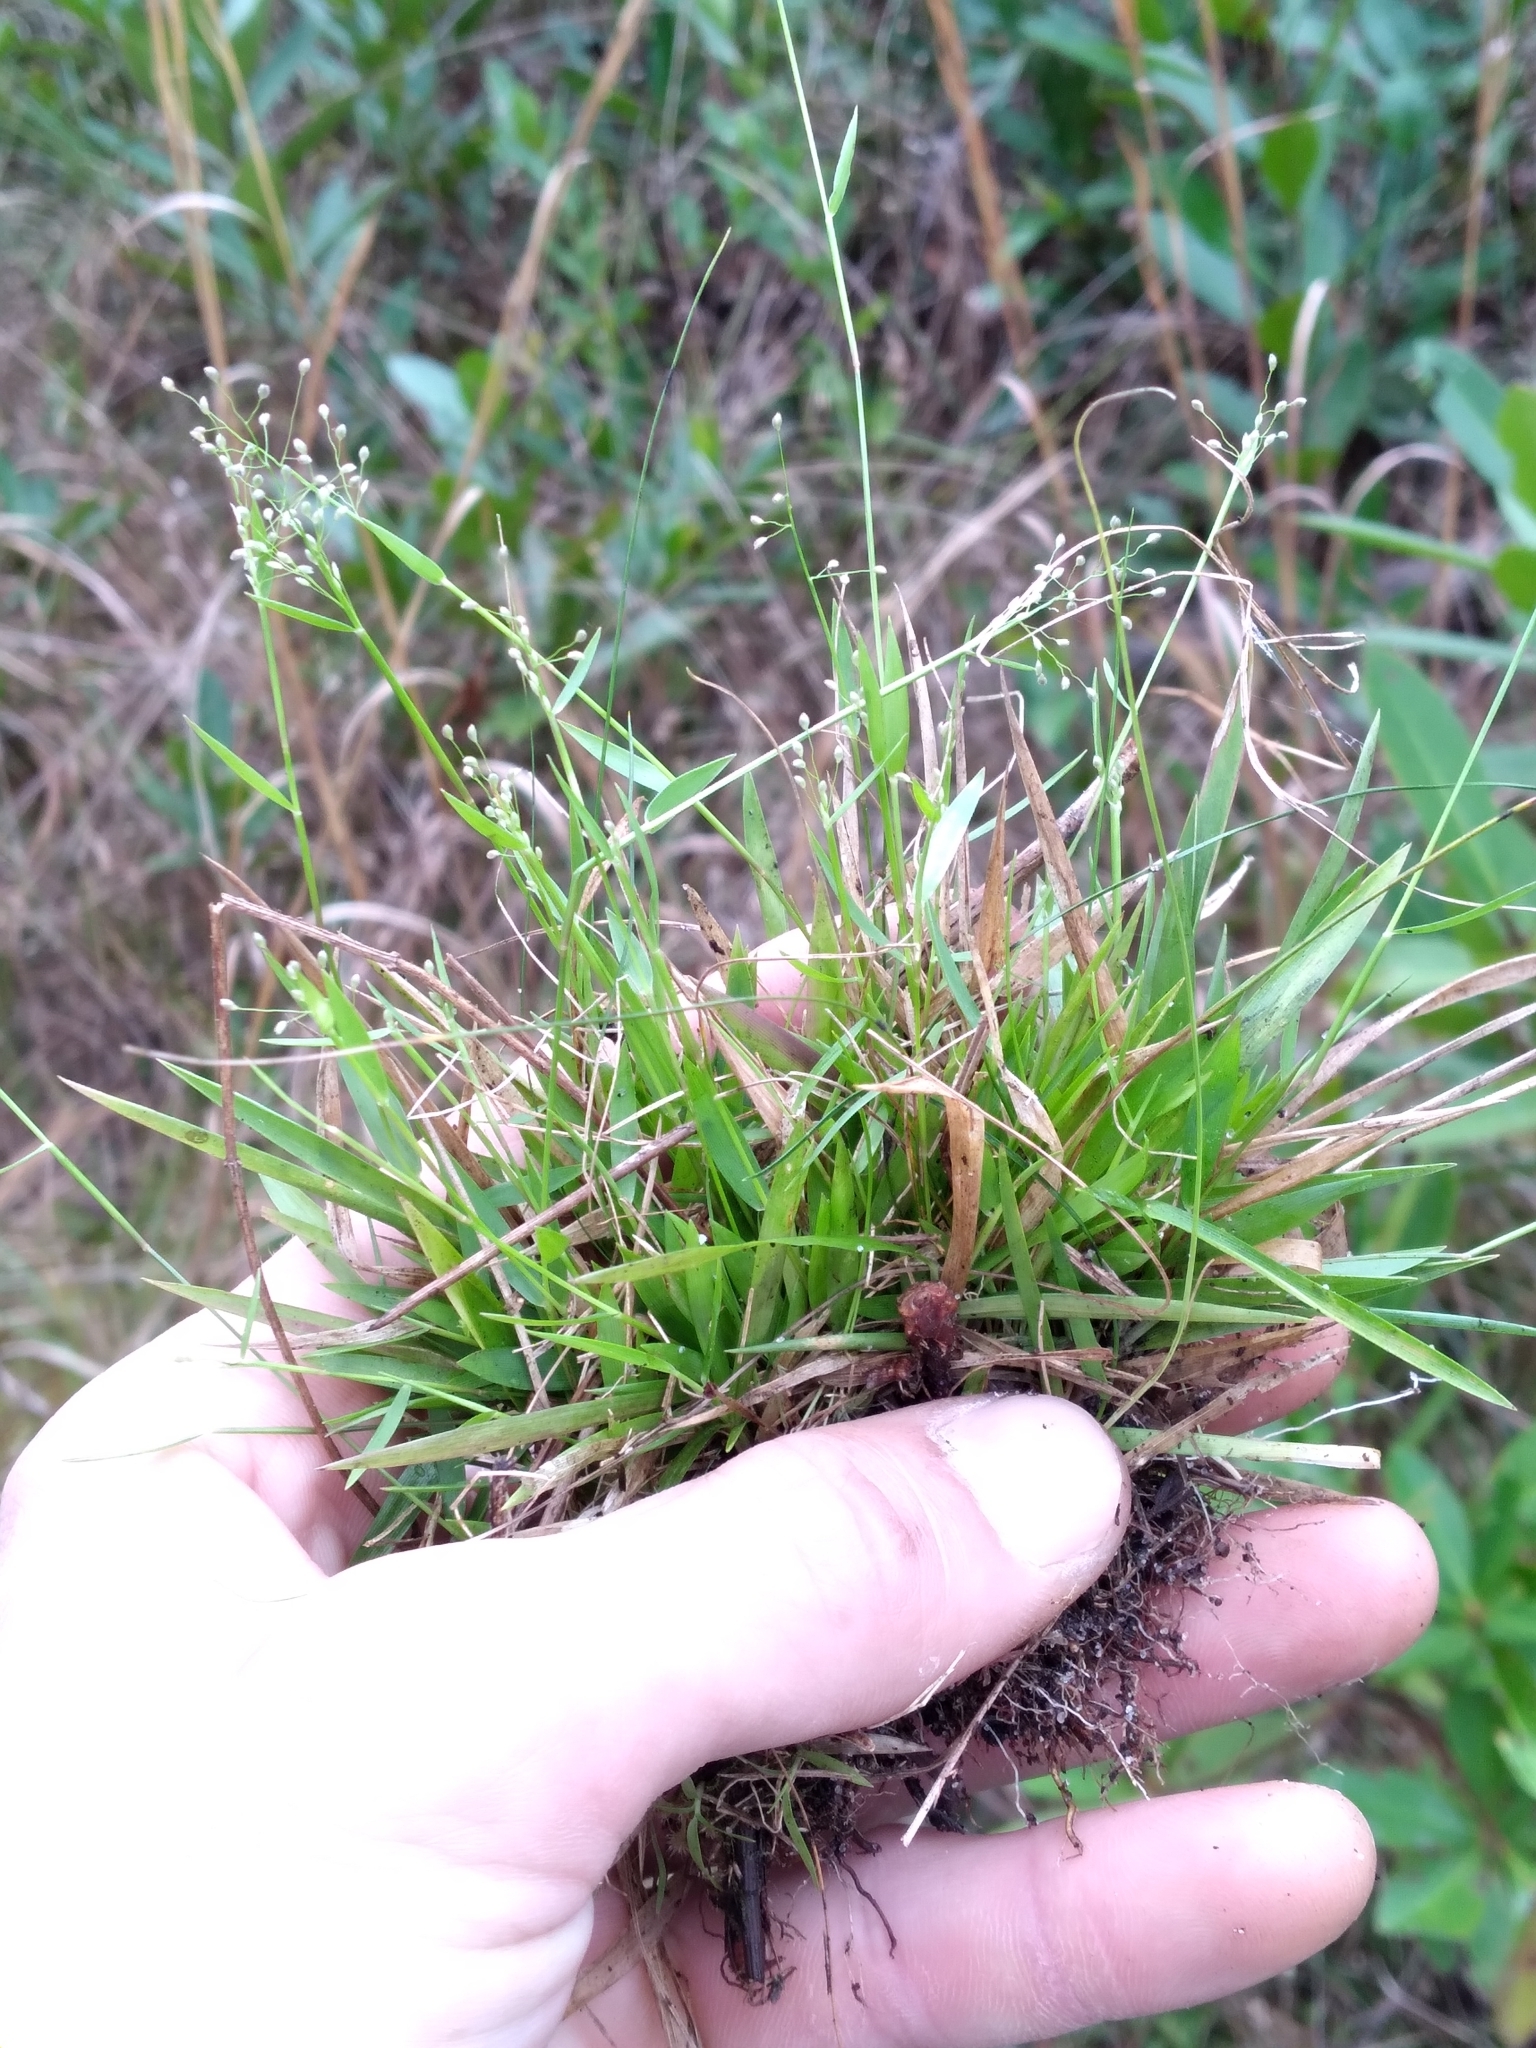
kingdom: Plantae
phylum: Tracheophyta
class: Liliopsida
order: Poales
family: Poaceae
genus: Dichanthelium
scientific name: Dichanthelium ensifolium
